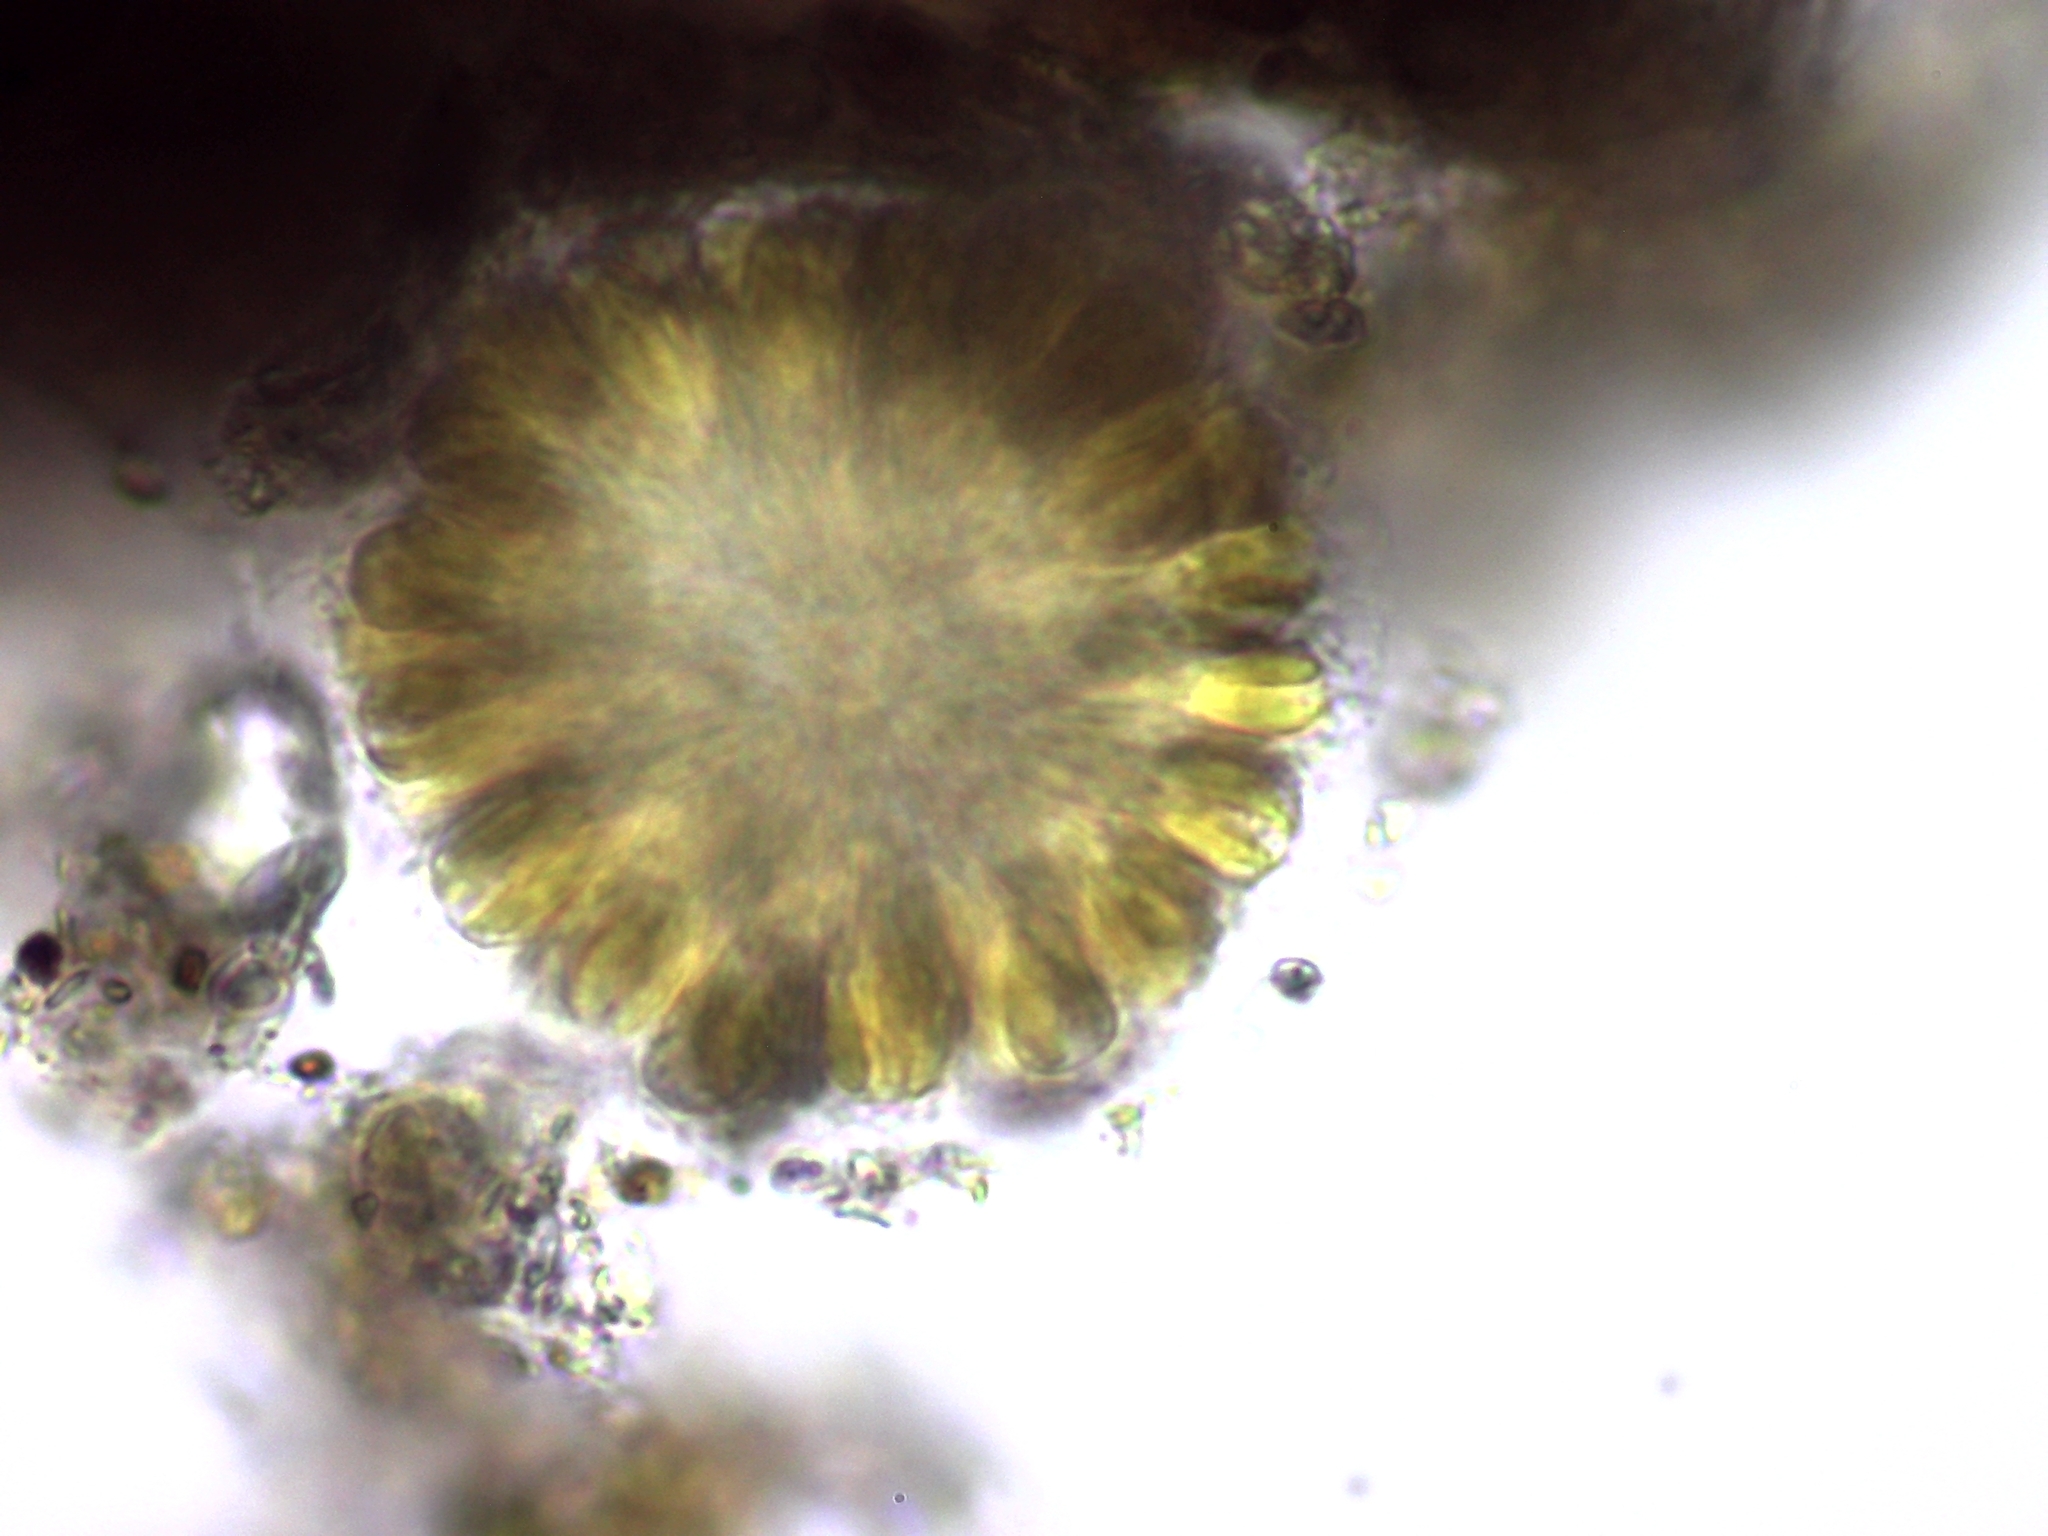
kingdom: Chromista
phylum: Ochrophyta
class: Synurophyceae
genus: Synura
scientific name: Synura
